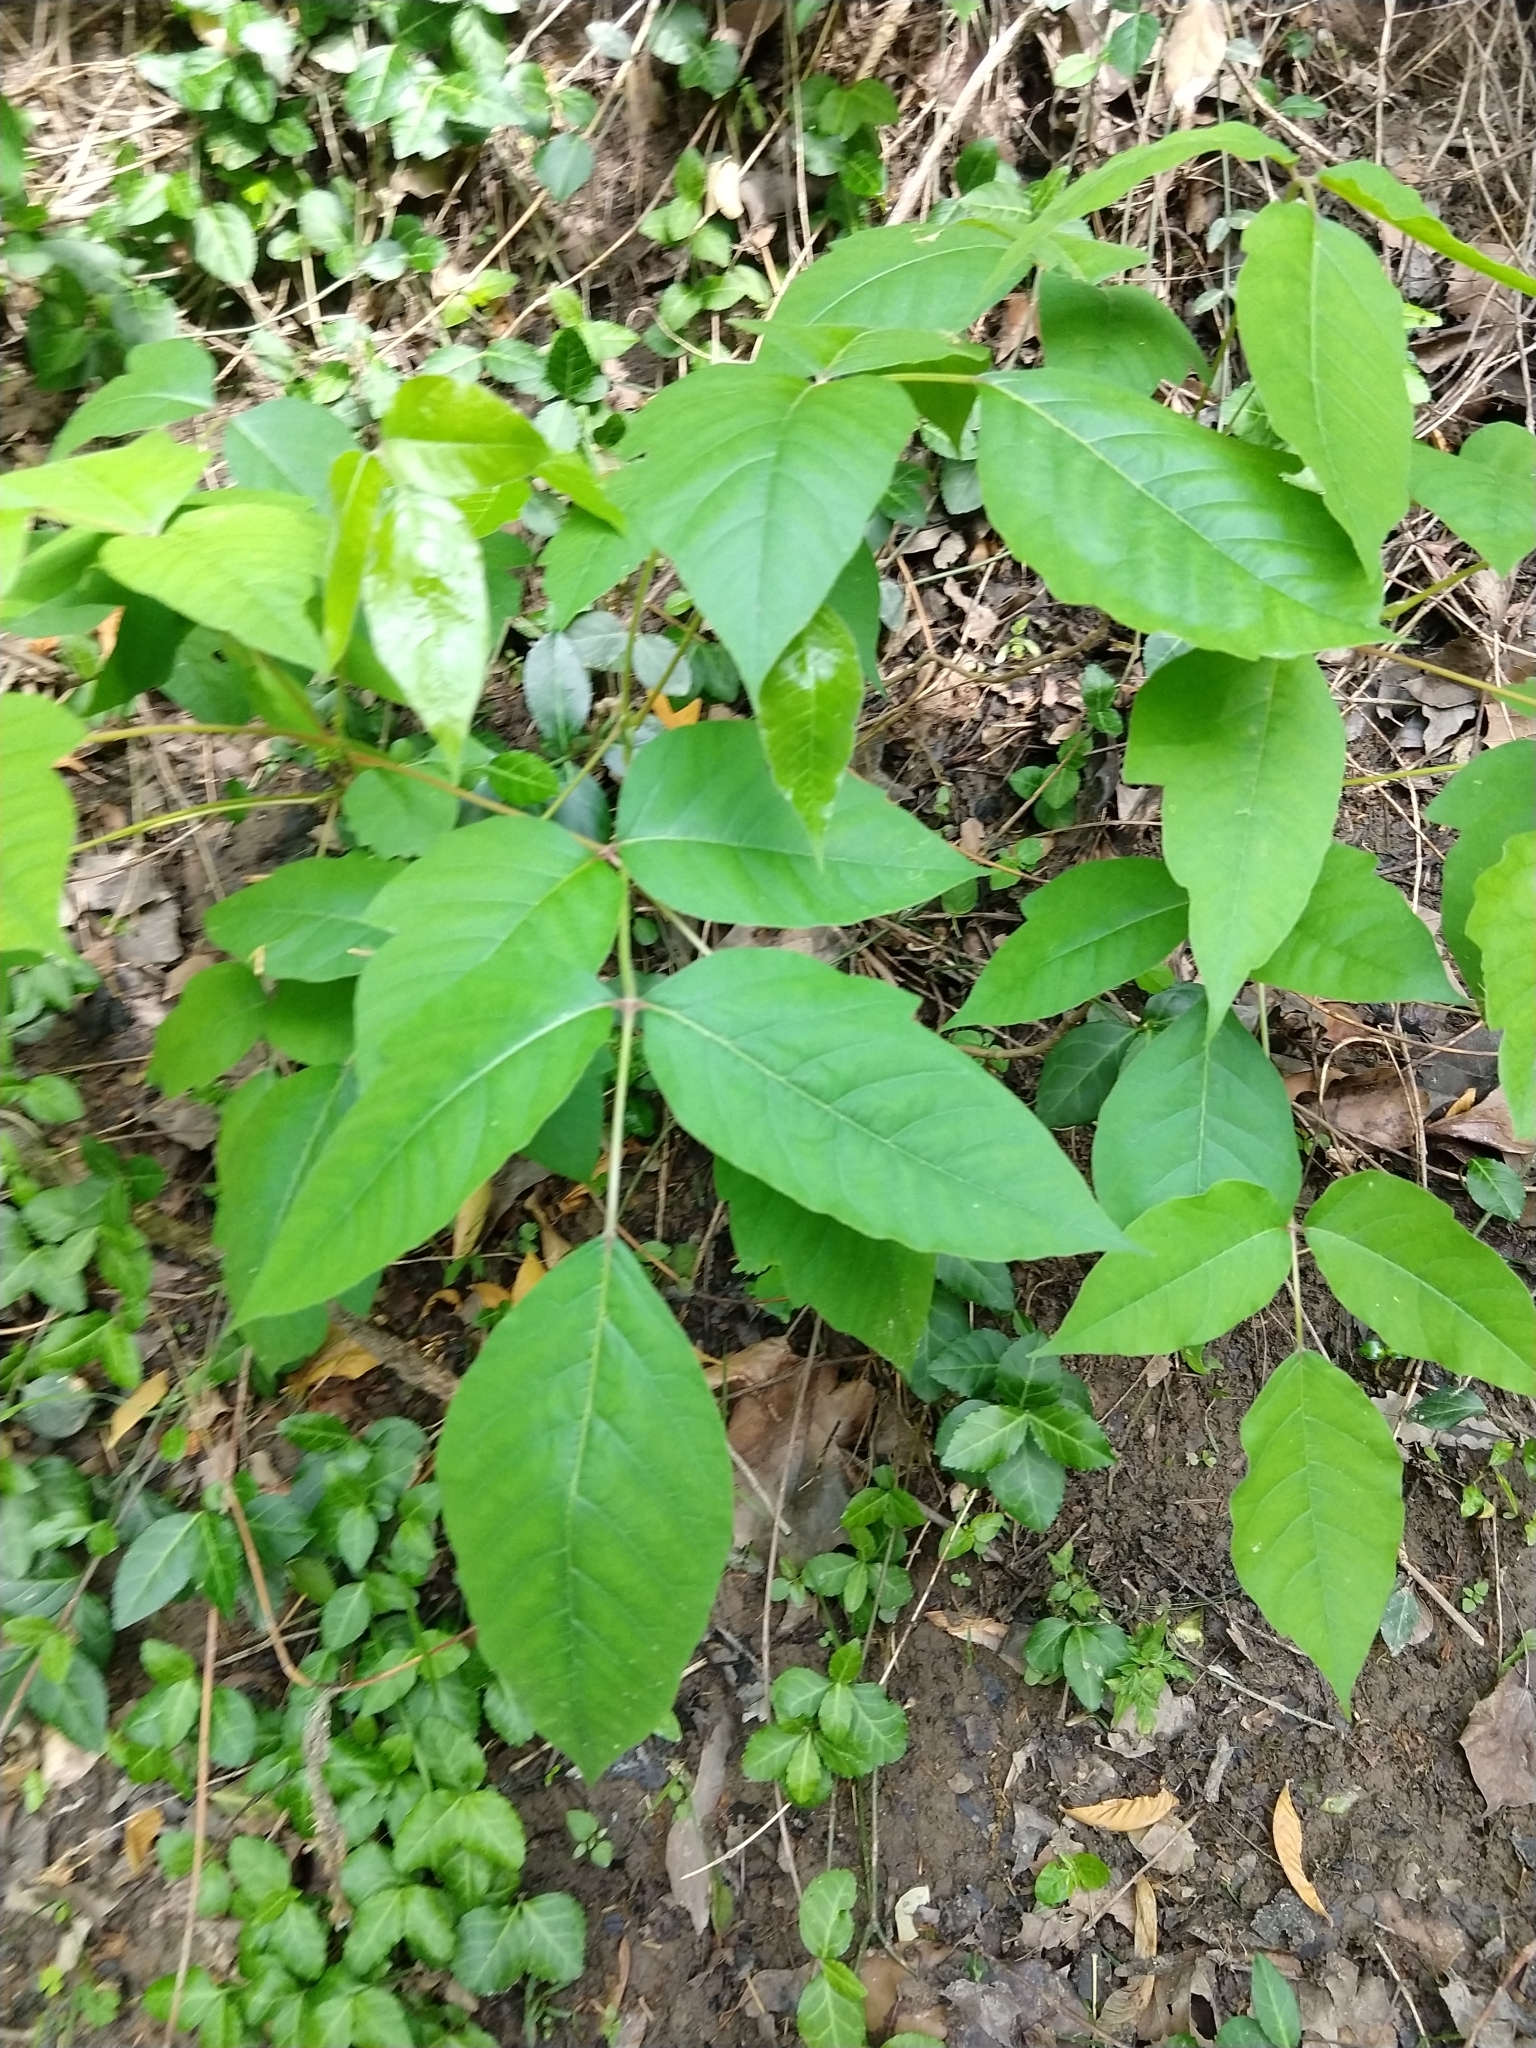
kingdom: Plantae
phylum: Tracheophyta
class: Magnoliopsida
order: Sapindales
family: Anacardiaceae
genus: Toxicodendron
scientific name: Toxicodendron radicans
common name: Poison ivy
